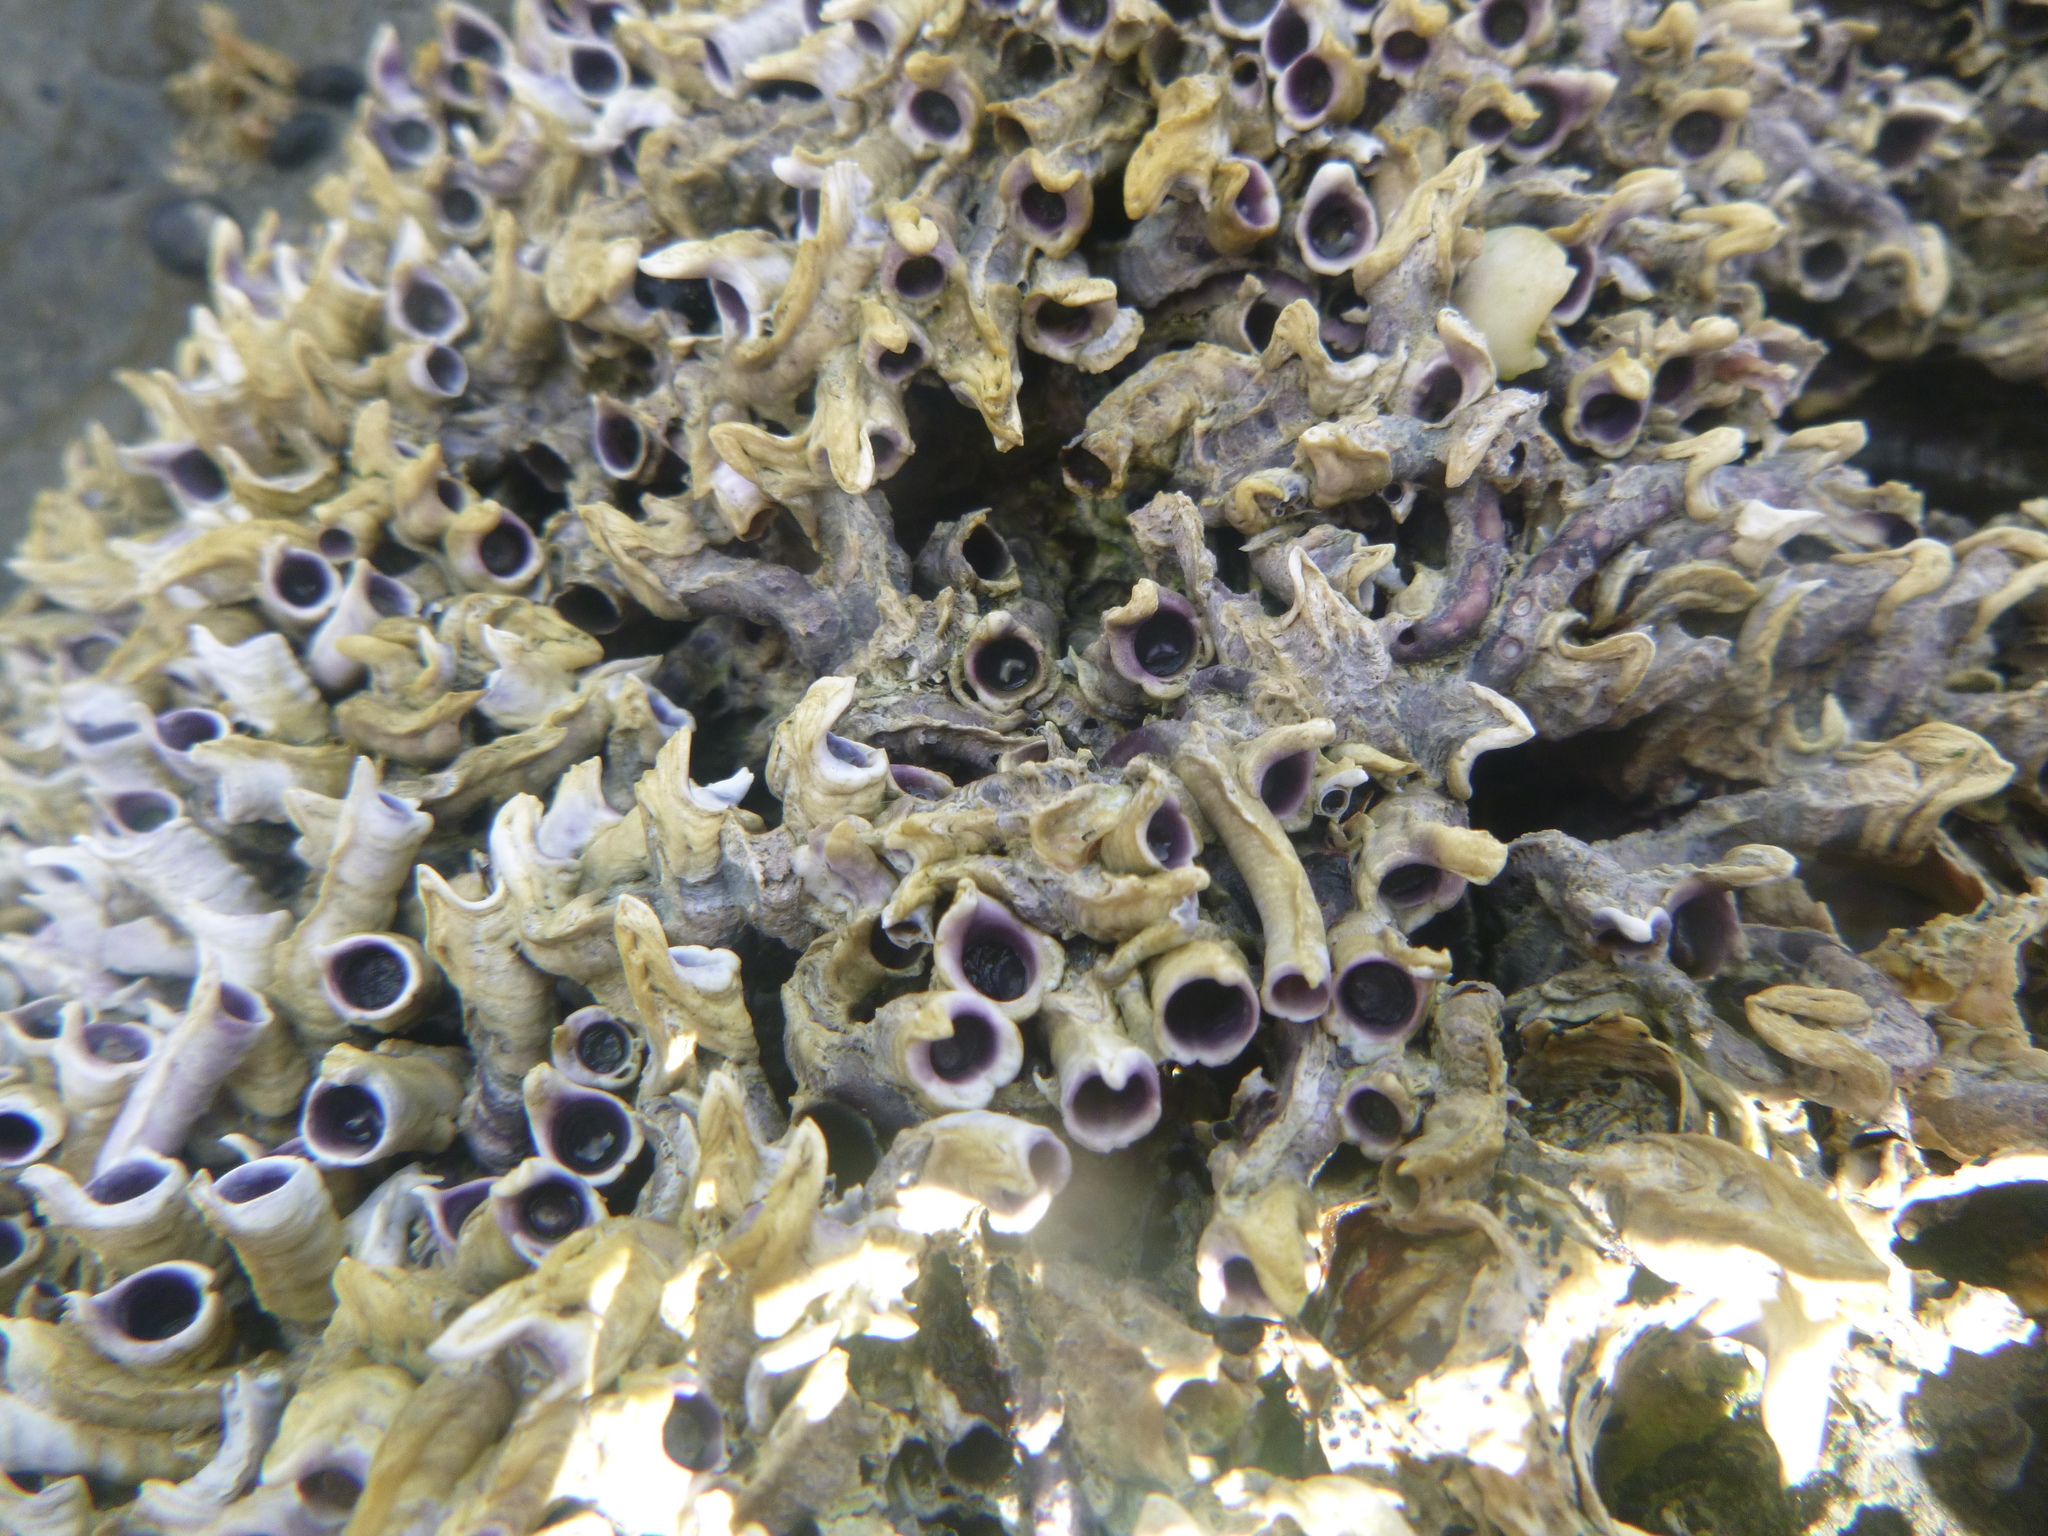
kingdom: Animalia
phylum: Annelida
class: Polychaeta
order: Sabellida
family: Serpulidae
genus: Spirobranchus
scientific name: Spirobranchus cariniferus
